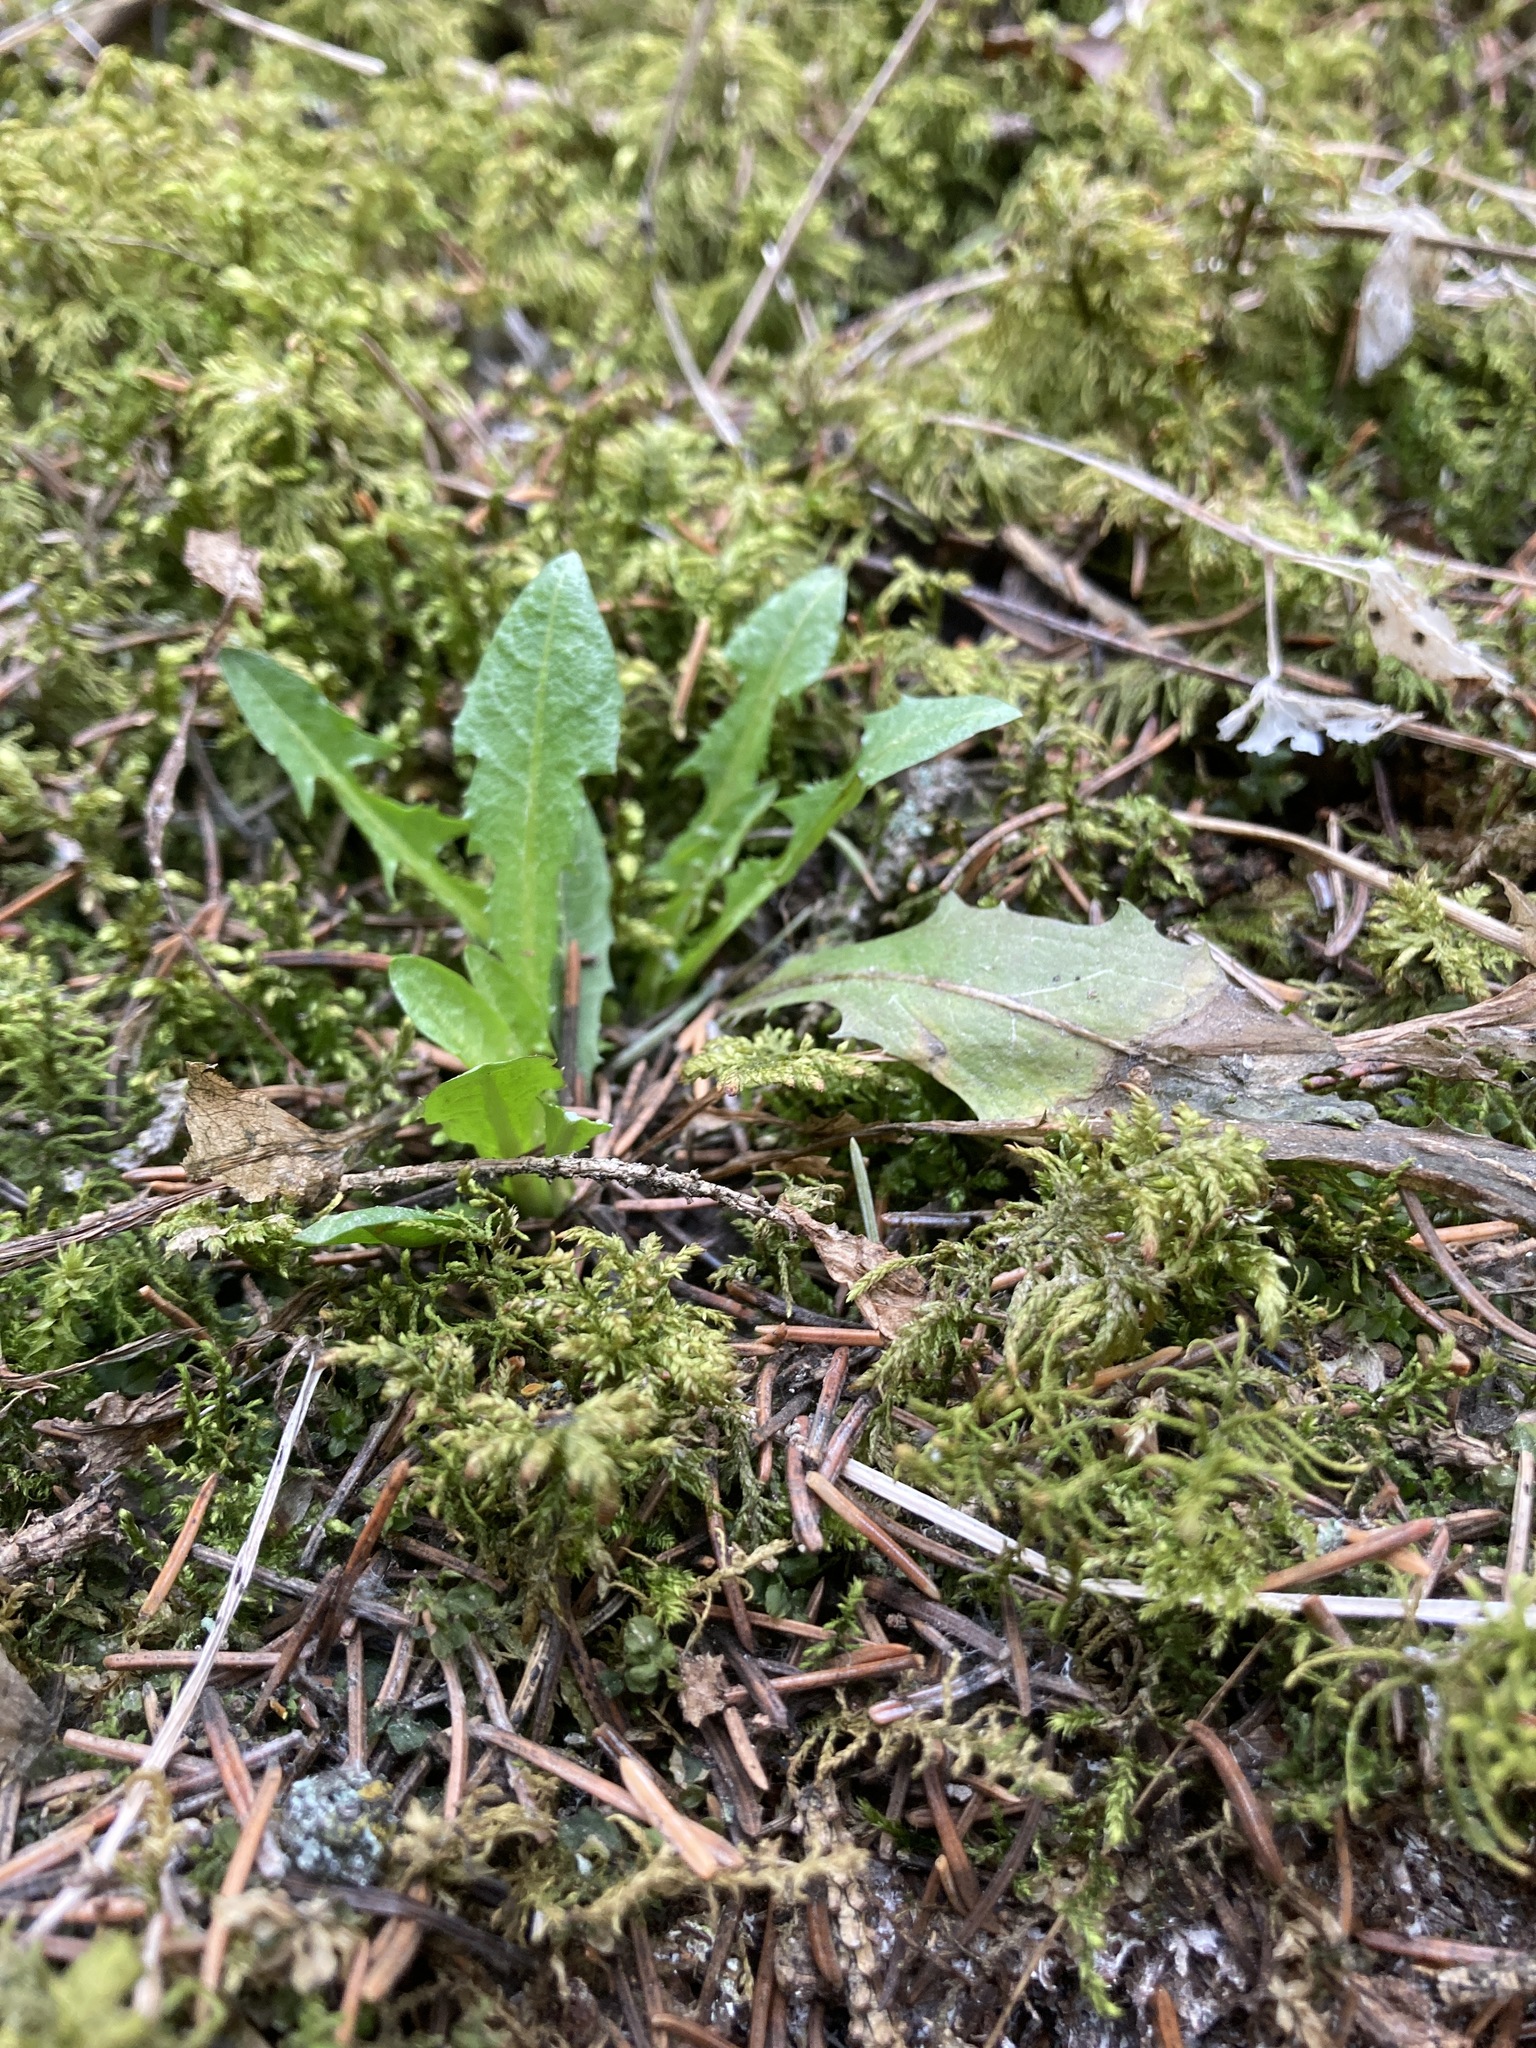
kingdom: Plantae
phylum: Tracheophyta
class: Magnoliopsida
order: Asterales
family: Asteraceae
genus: Taraxacum
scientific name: Taraxacum officinale
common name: Common dandelion
